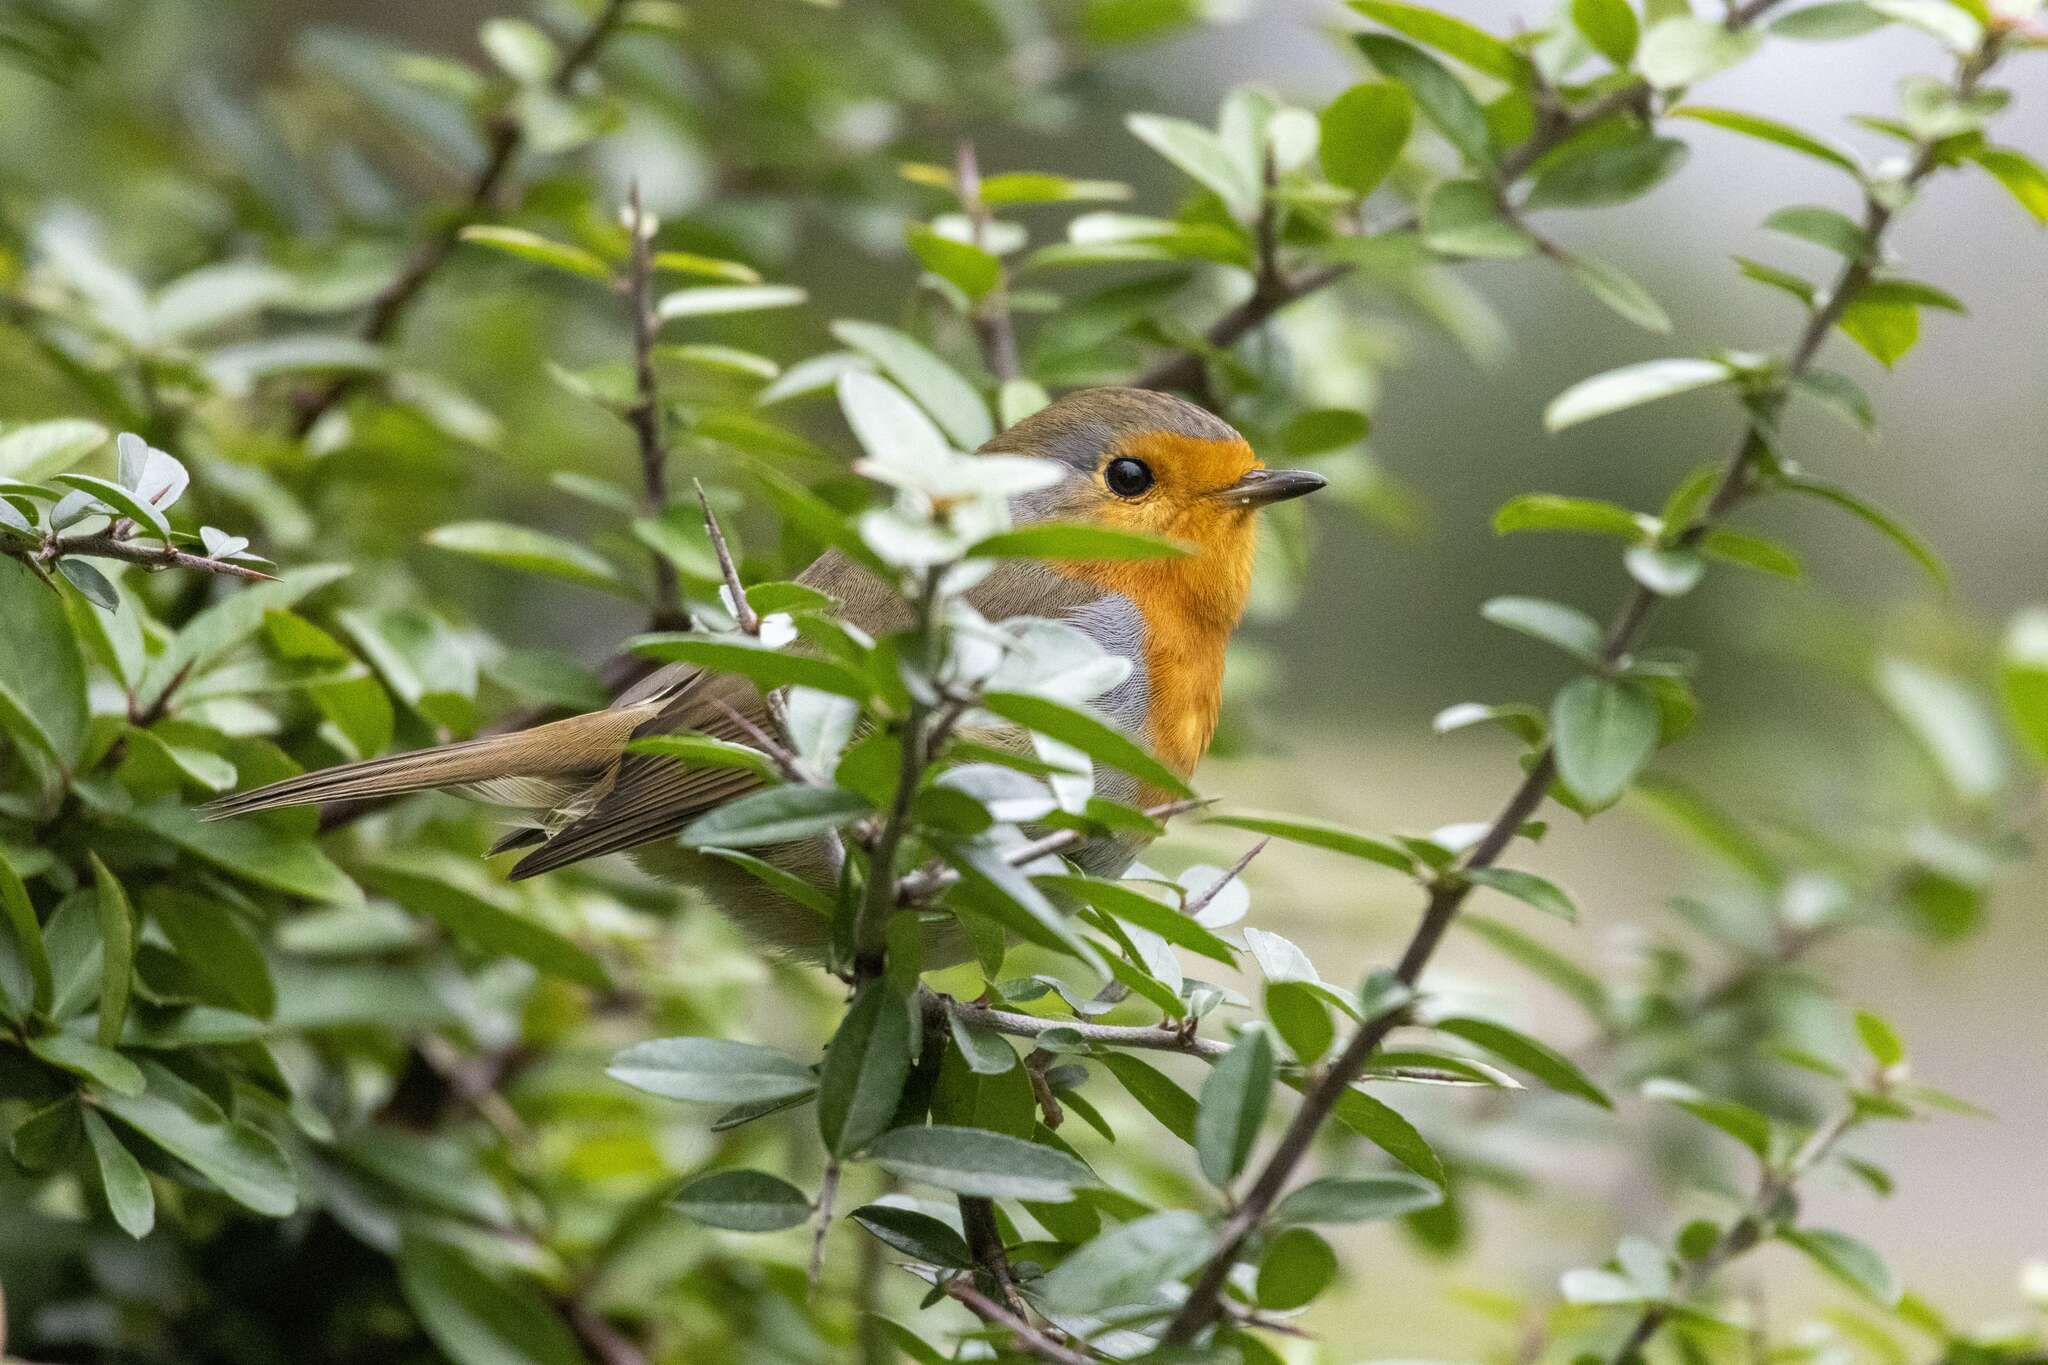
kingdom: Animalia
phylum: Chordata
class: Aves
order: Passeriformes
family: Muscicapidae
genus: Erithacus
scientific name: Erithacus rubecula
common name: European robin
